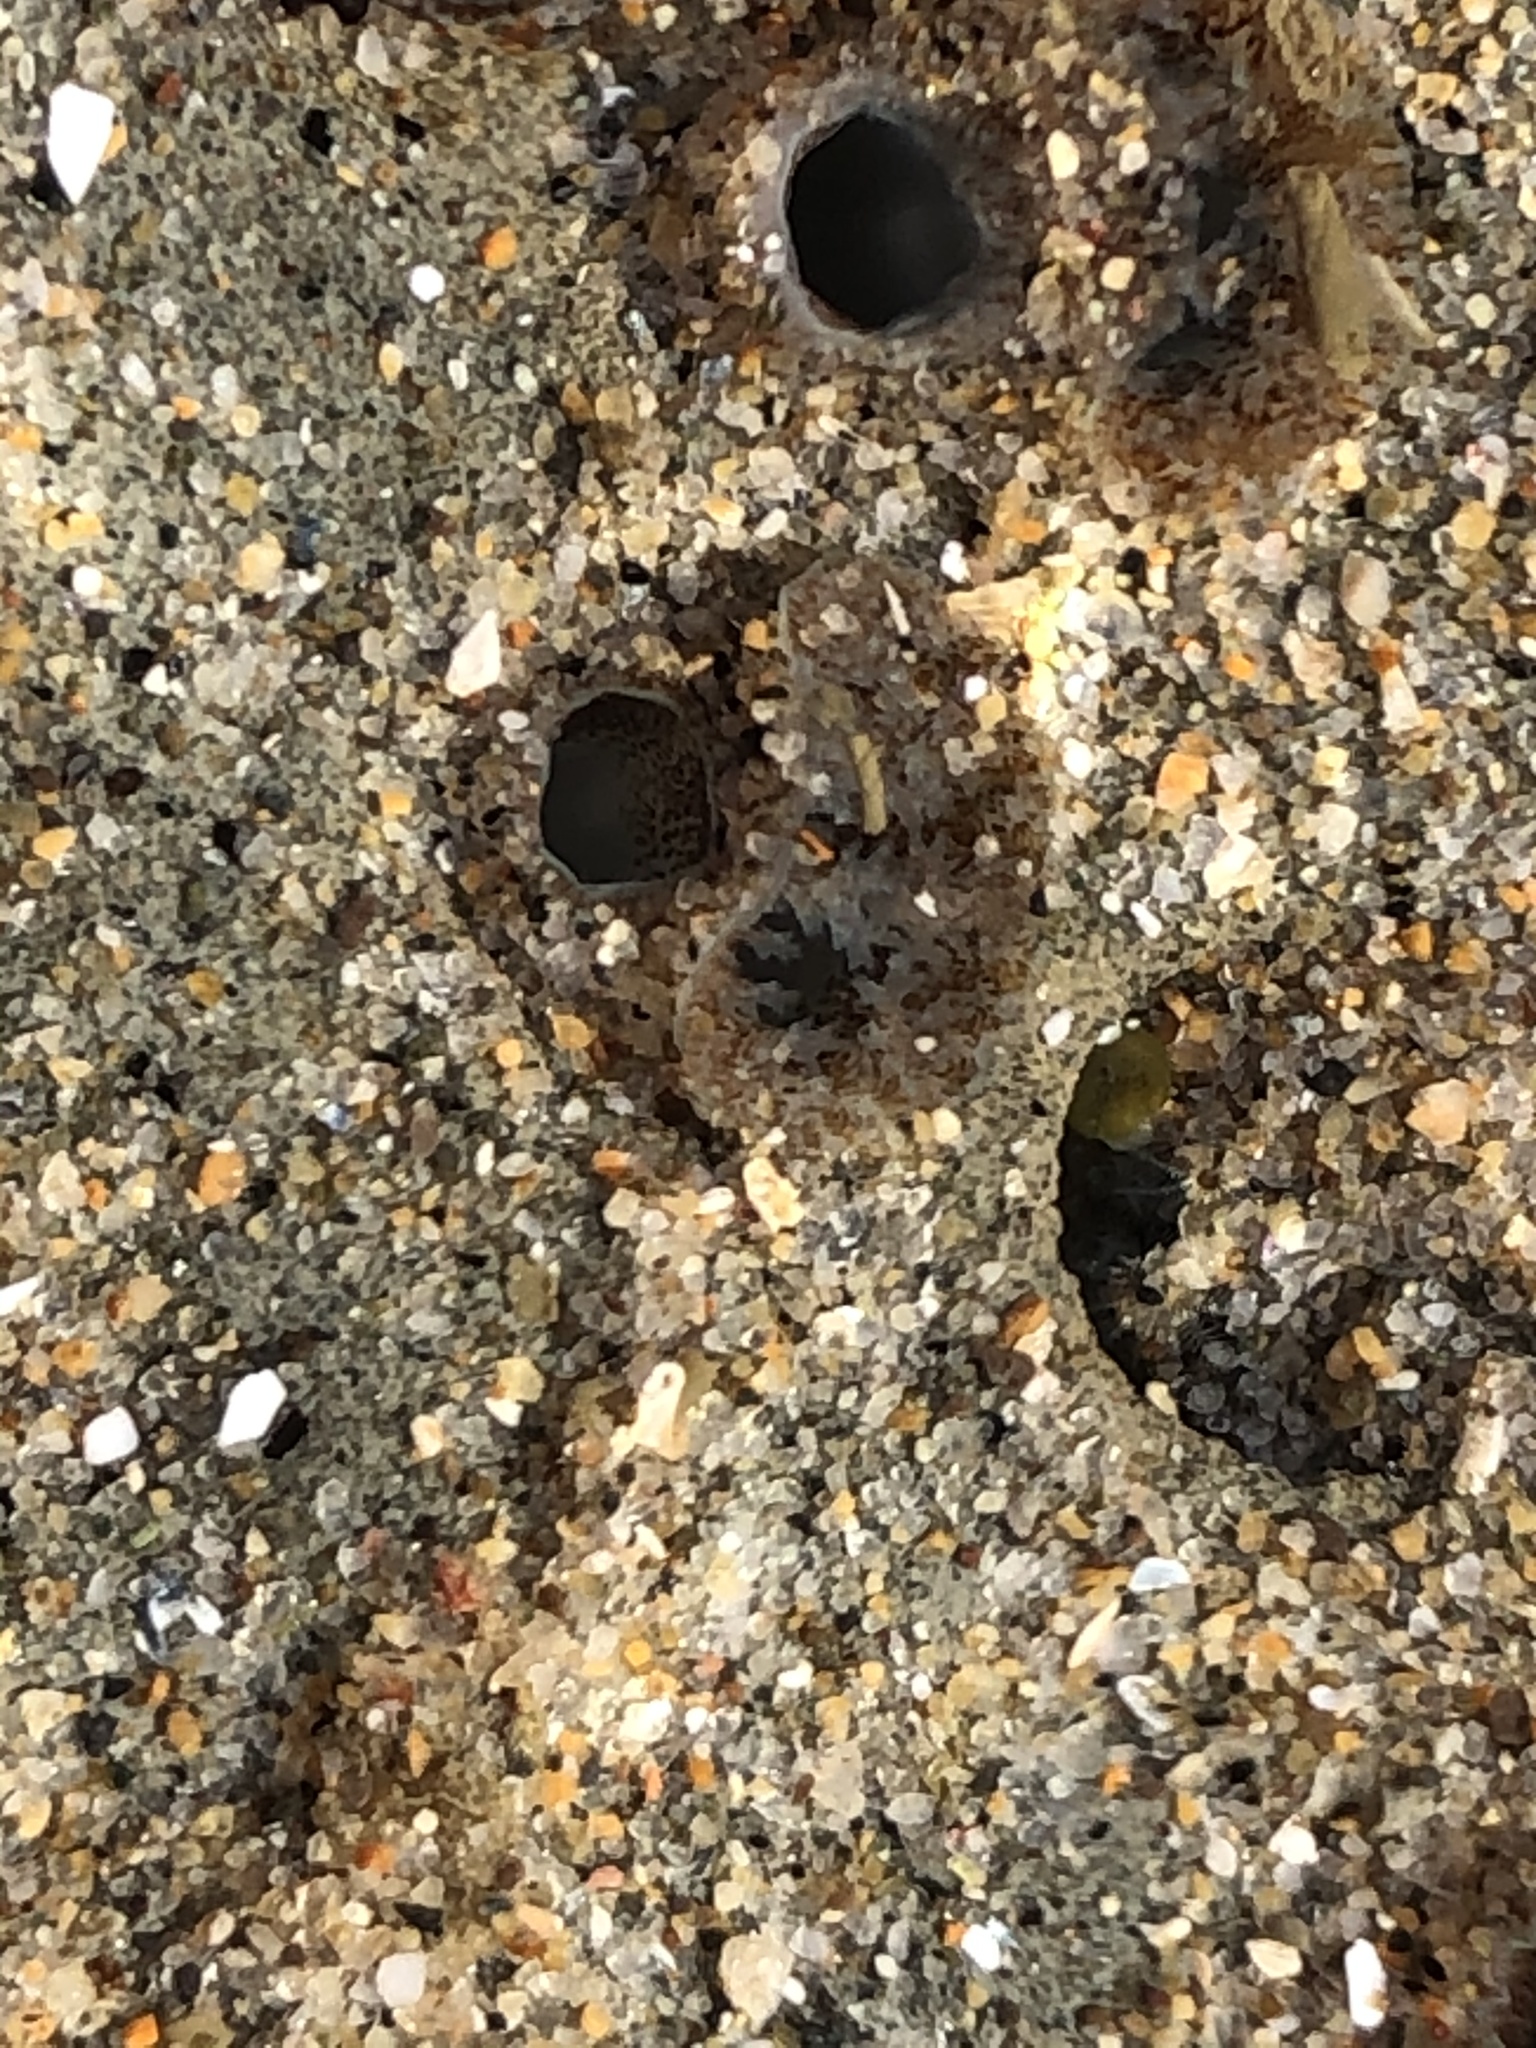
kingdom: Animalia
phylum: Mollusca
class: Bivalvia
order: Myida
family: Pholadidae
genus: Parapholas
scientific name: Parapholas californica
